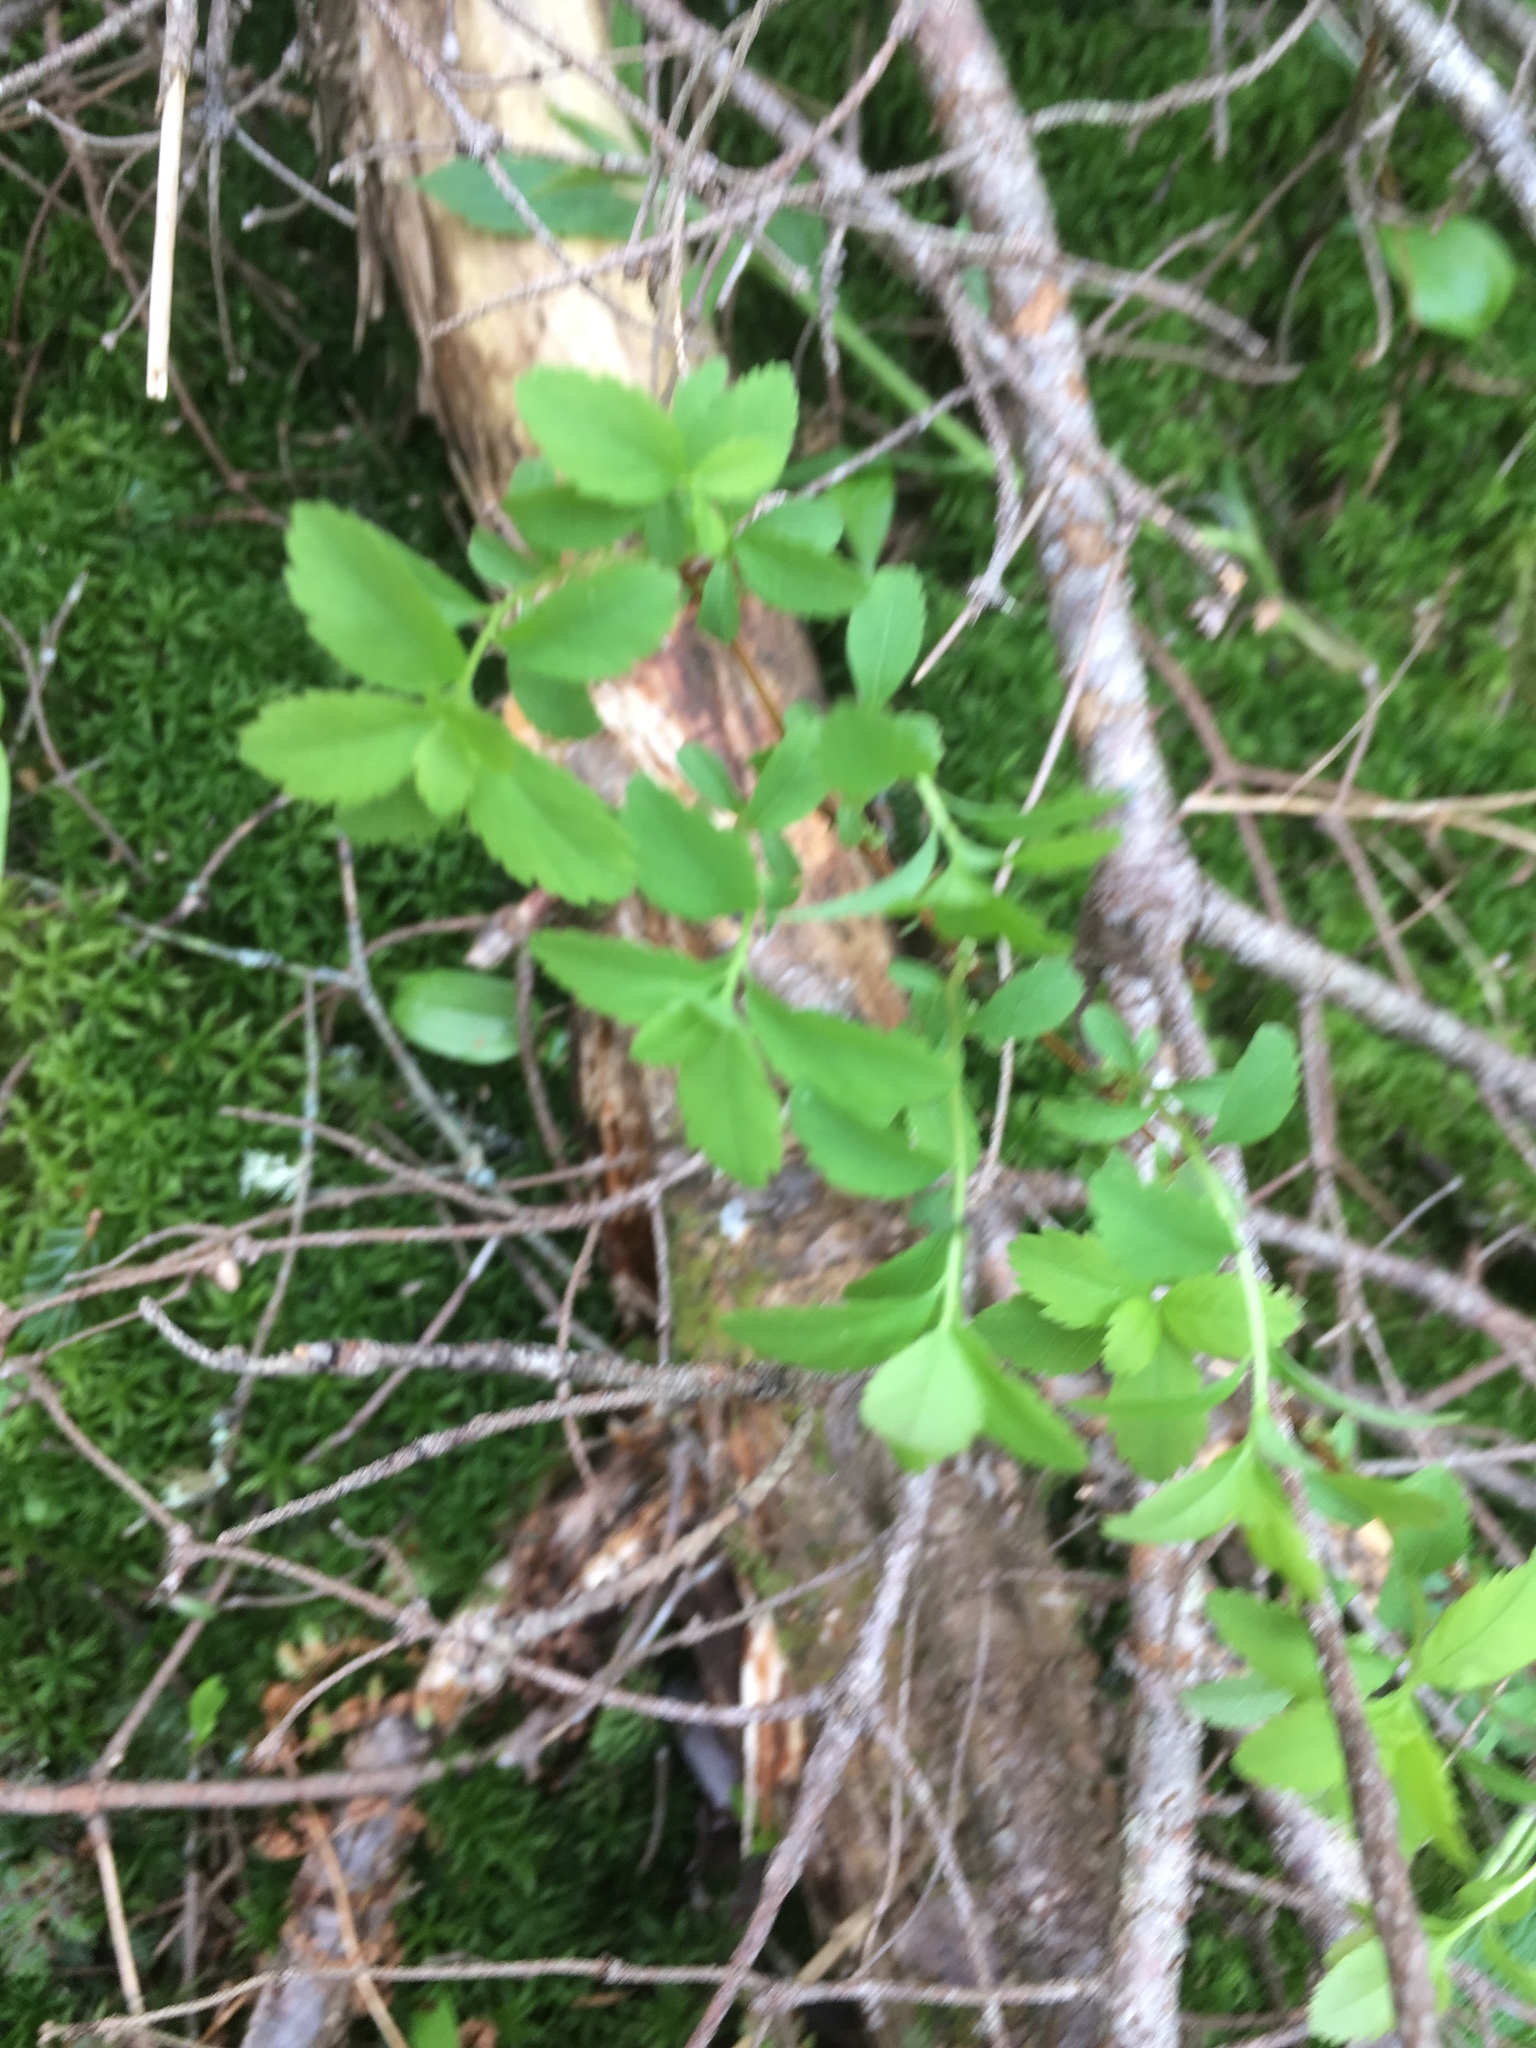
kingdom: Plantae
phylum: Tracheophyta
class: Magnoliopsida
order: Rosales
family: Rosaceae
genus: Spiraea
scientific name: Spiraea alba
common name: Pale bridewort
